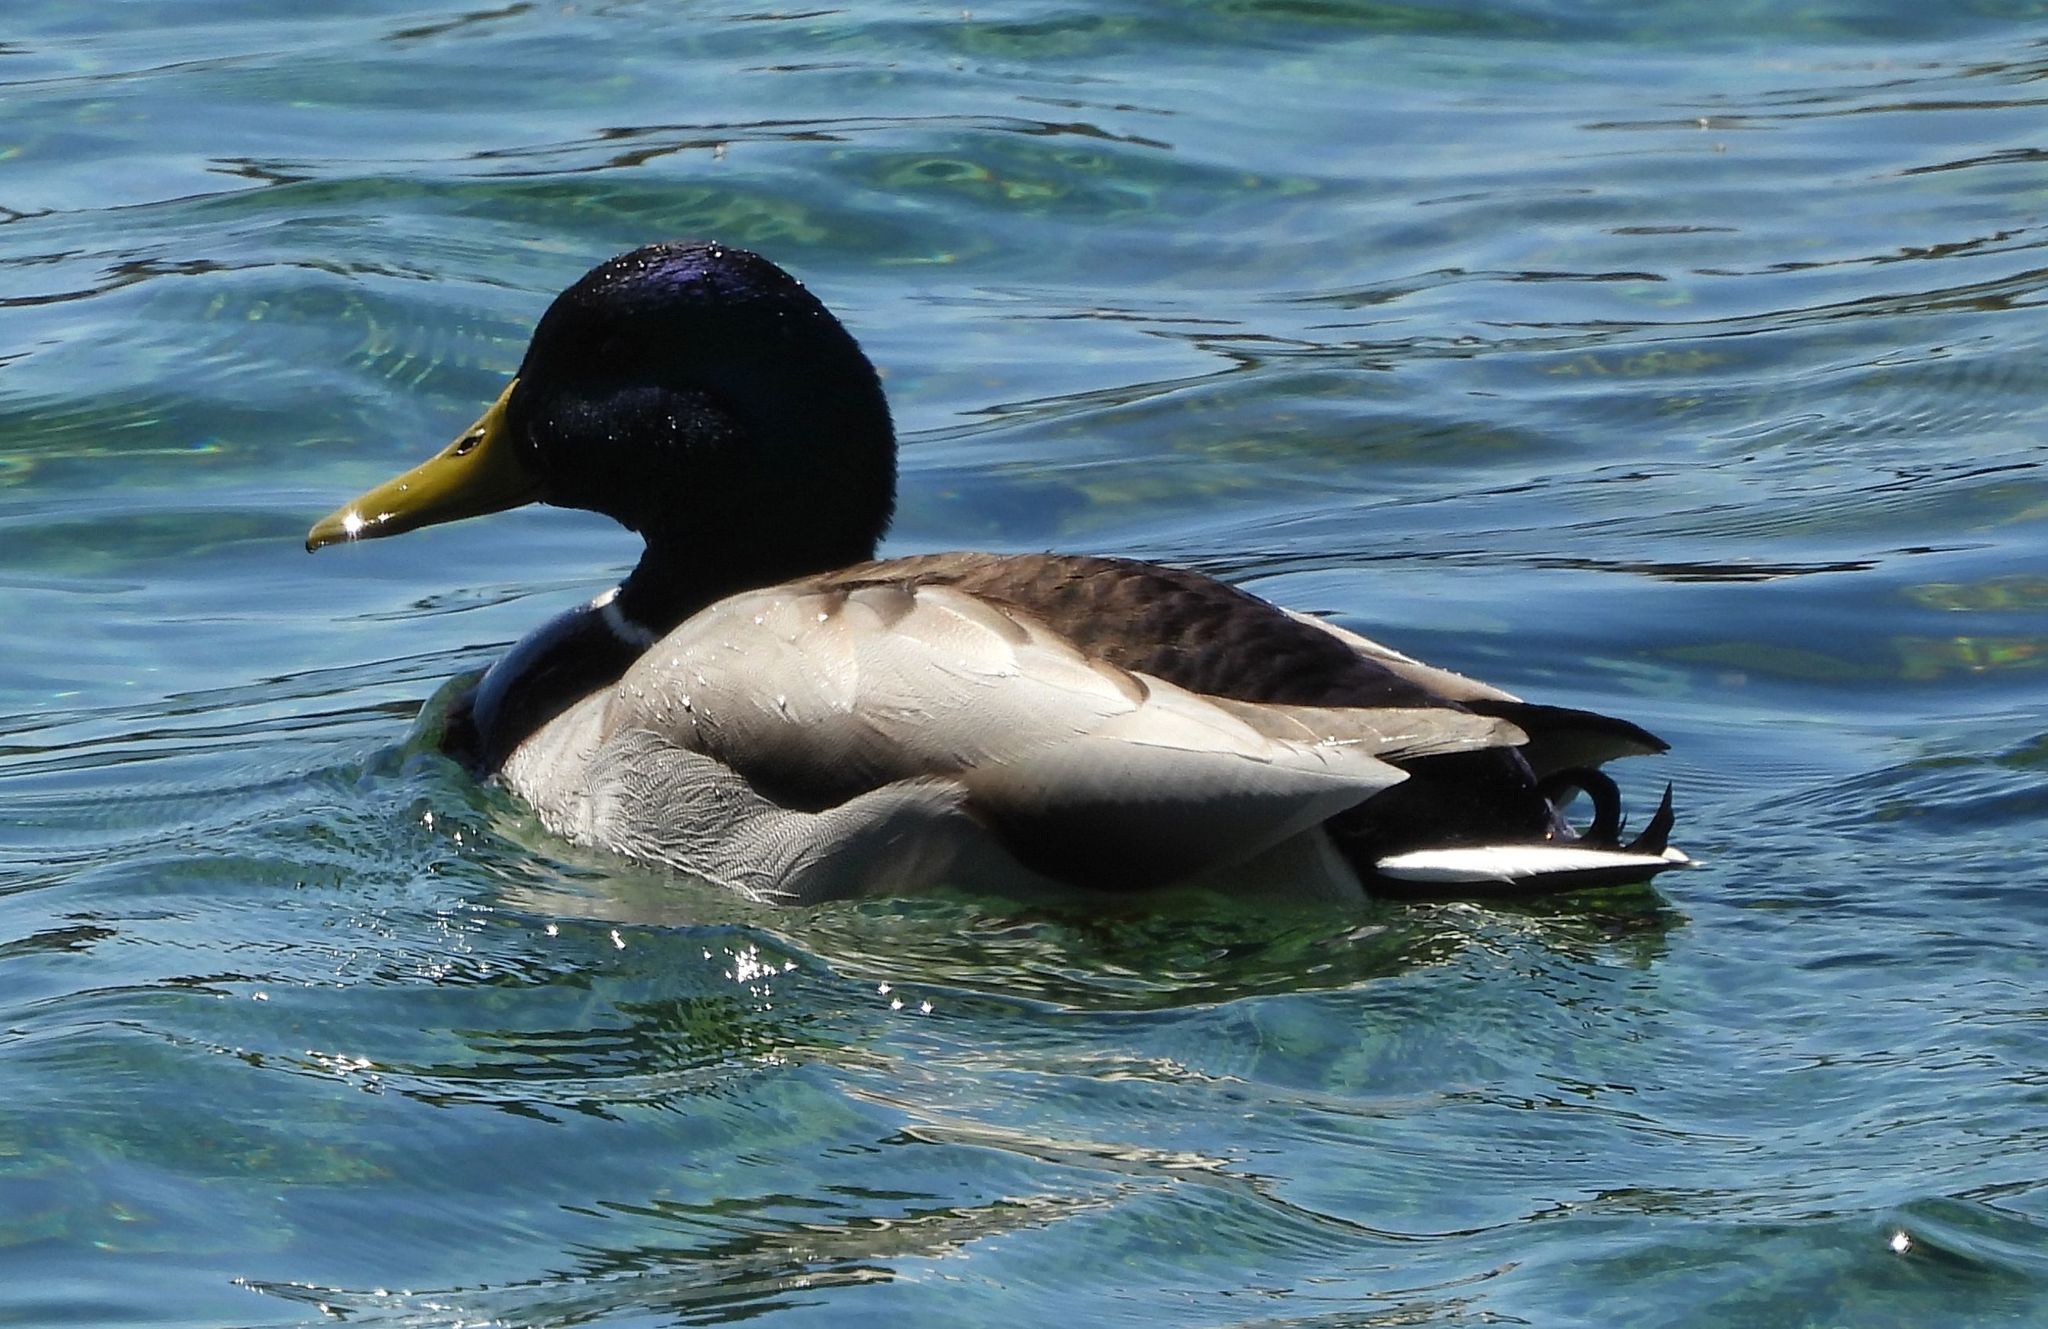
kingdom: Animalia
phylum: Chordata
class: Aves
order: Anseriformes
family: Anatidae
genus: Anas
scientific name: Anas platyrhynchos
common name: Mallard
